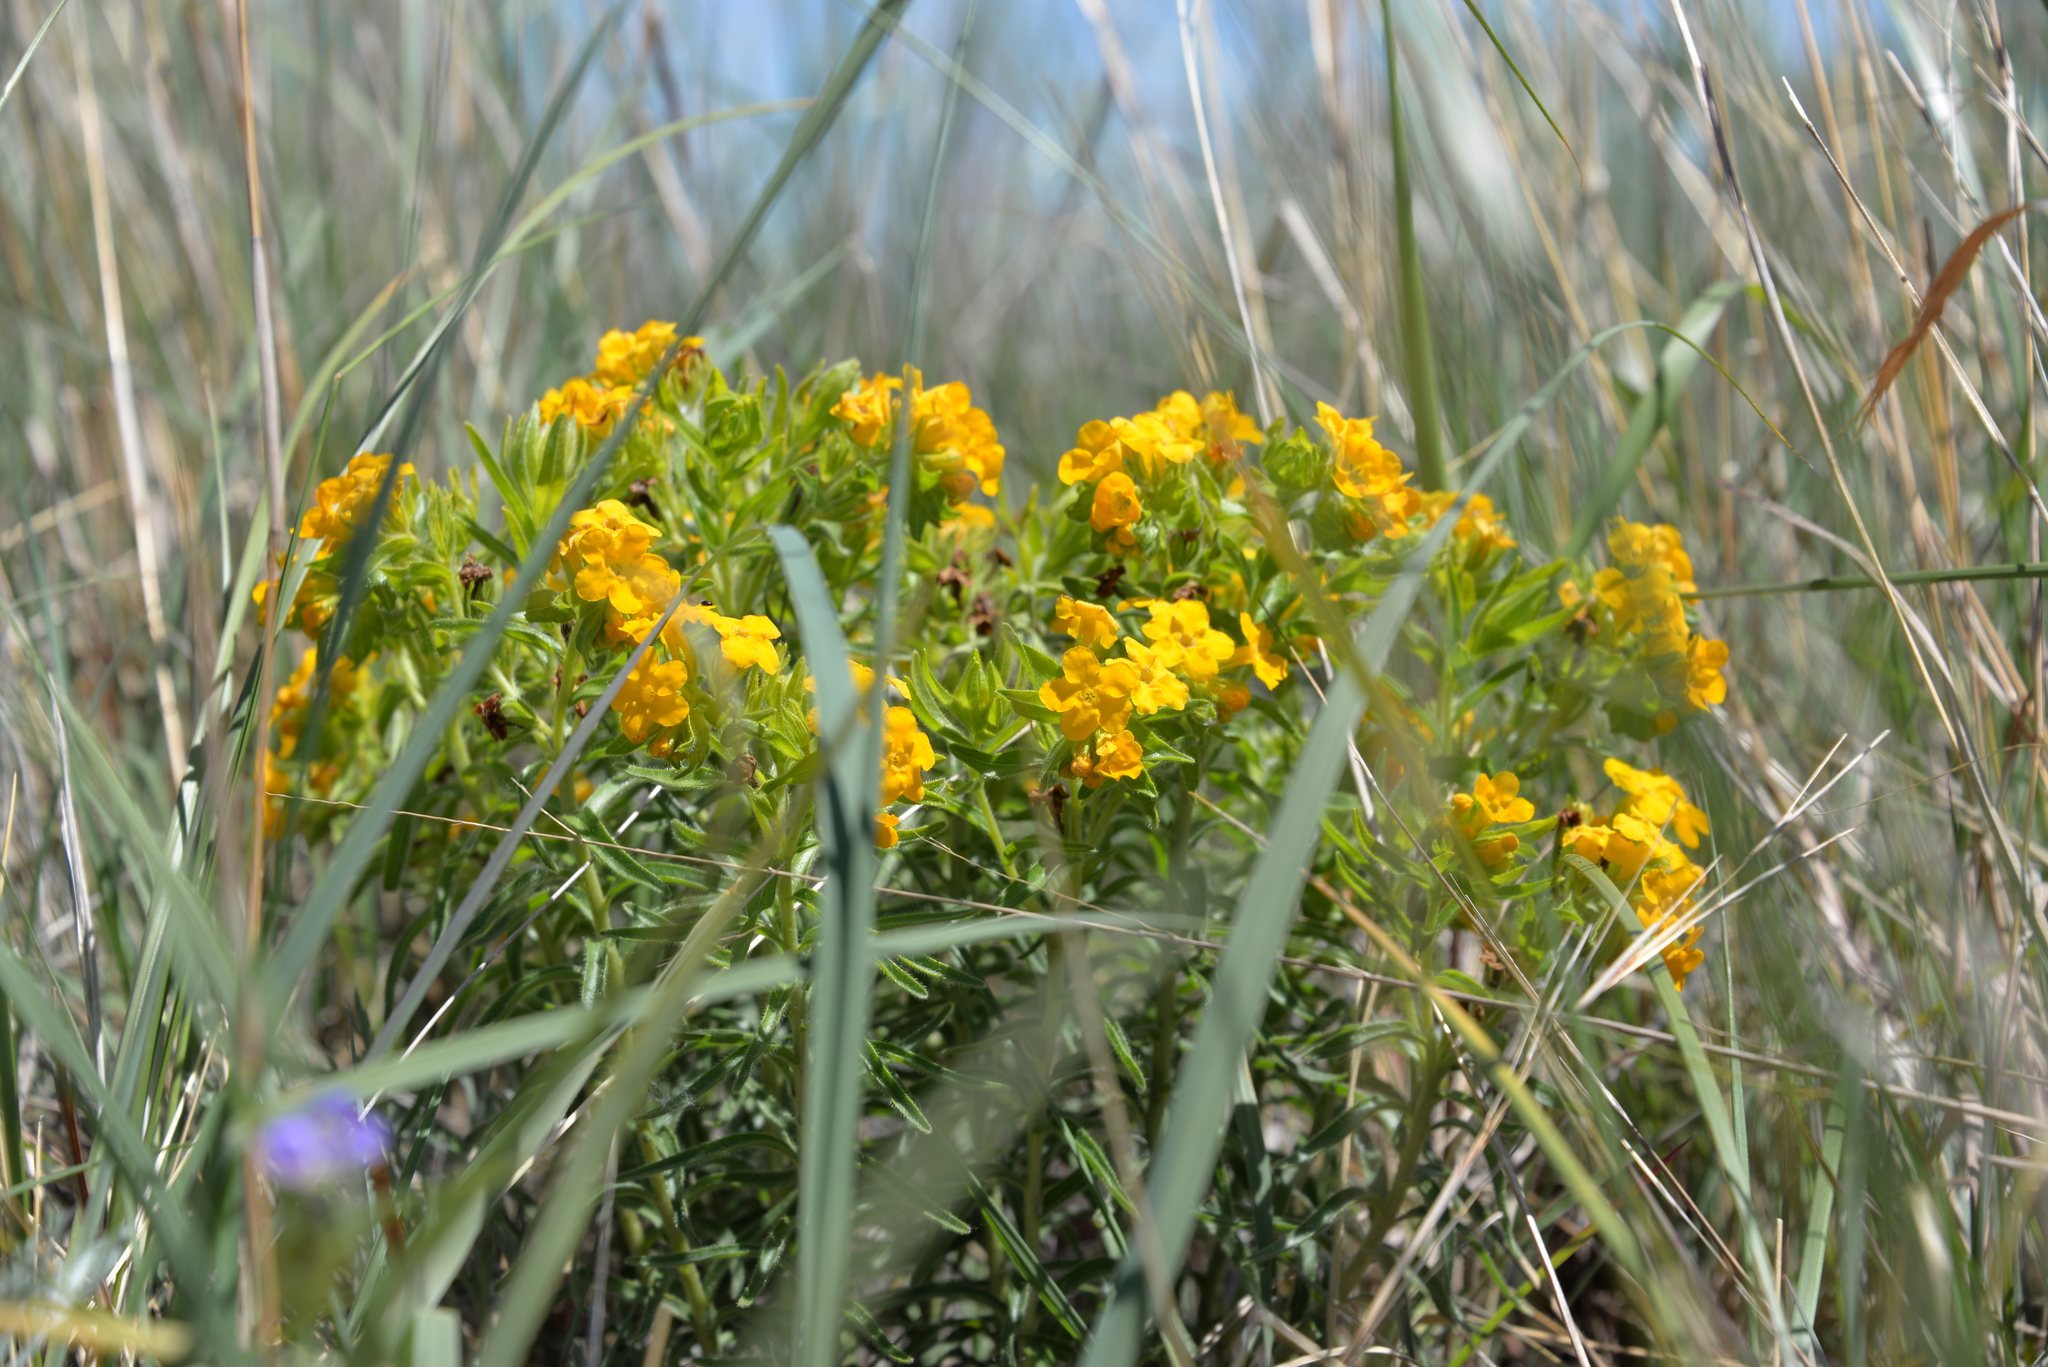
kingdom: Plantae
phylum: Tracheophyta
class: Magnoliopsida
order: Boraginales
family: Boraginaceae
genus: Lithospermum
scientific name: Lithospermum caroliniense
